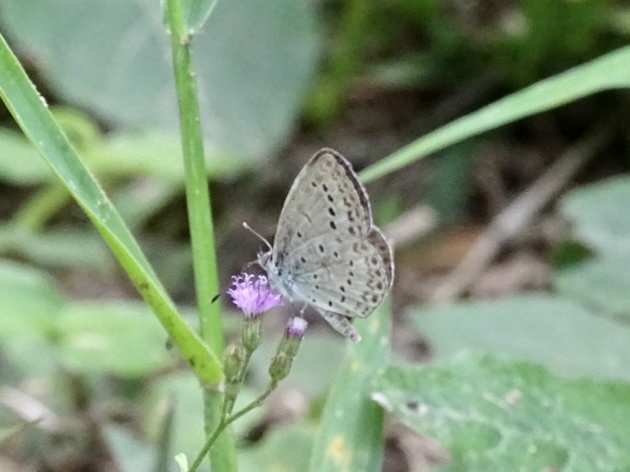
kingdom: Animalia
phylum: Arthropoda
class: Insecta
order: Lepidoptera
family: Lycaenidae
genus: Pseudozizeeria
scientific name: Pseudozizeeria maha
